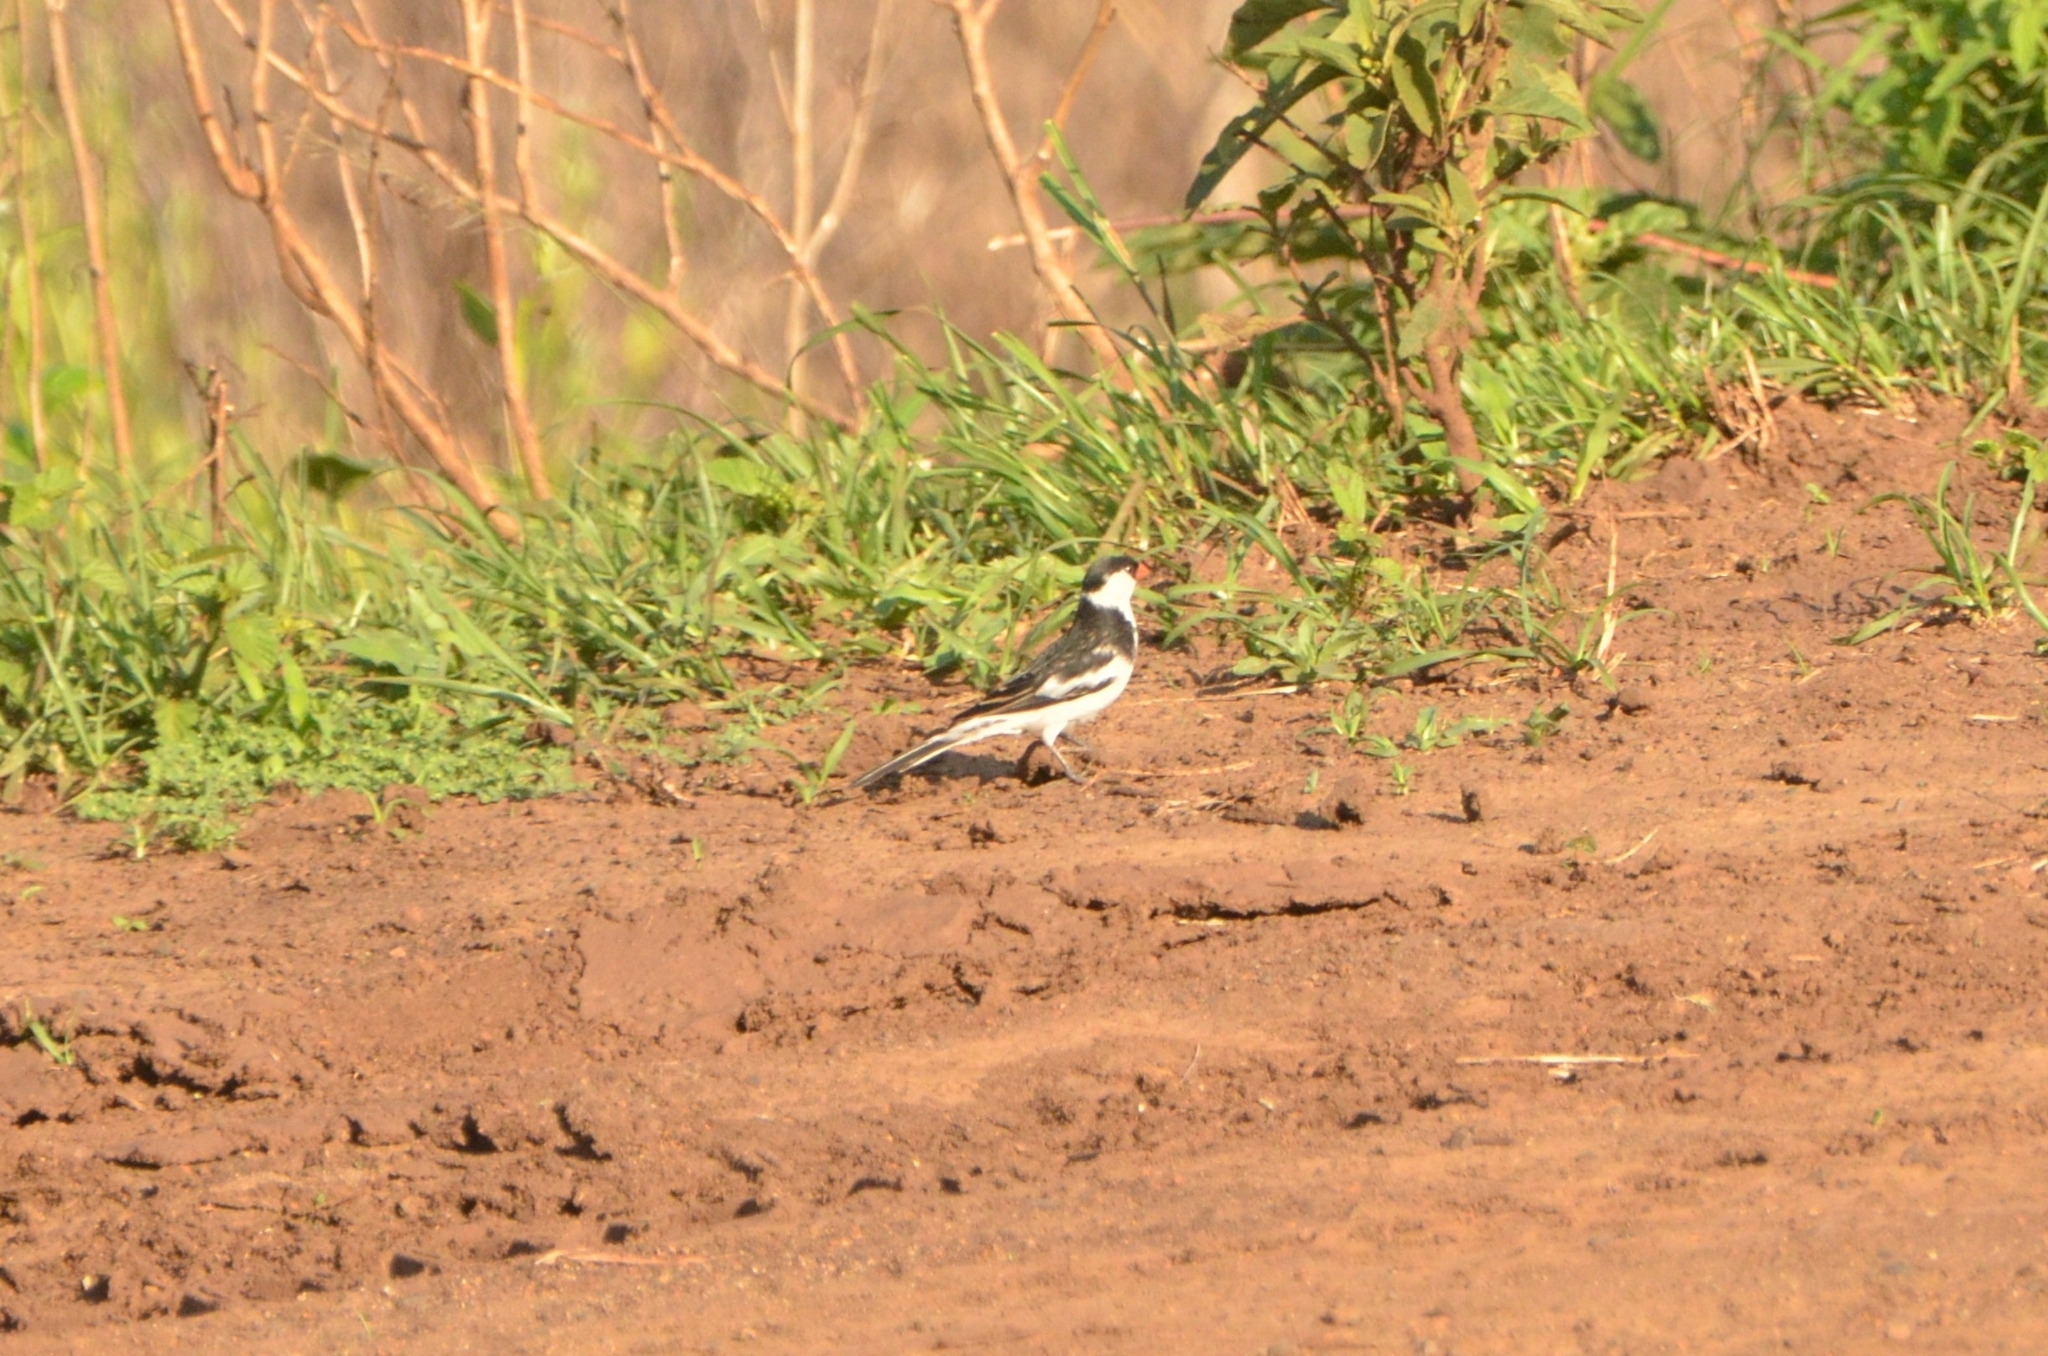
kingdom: Animalia
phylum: Chordata
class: Aves
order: Passeriformes
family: Viduidae
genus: Vidua
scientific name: Vidua macroura
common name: Pin-tailed whydah
